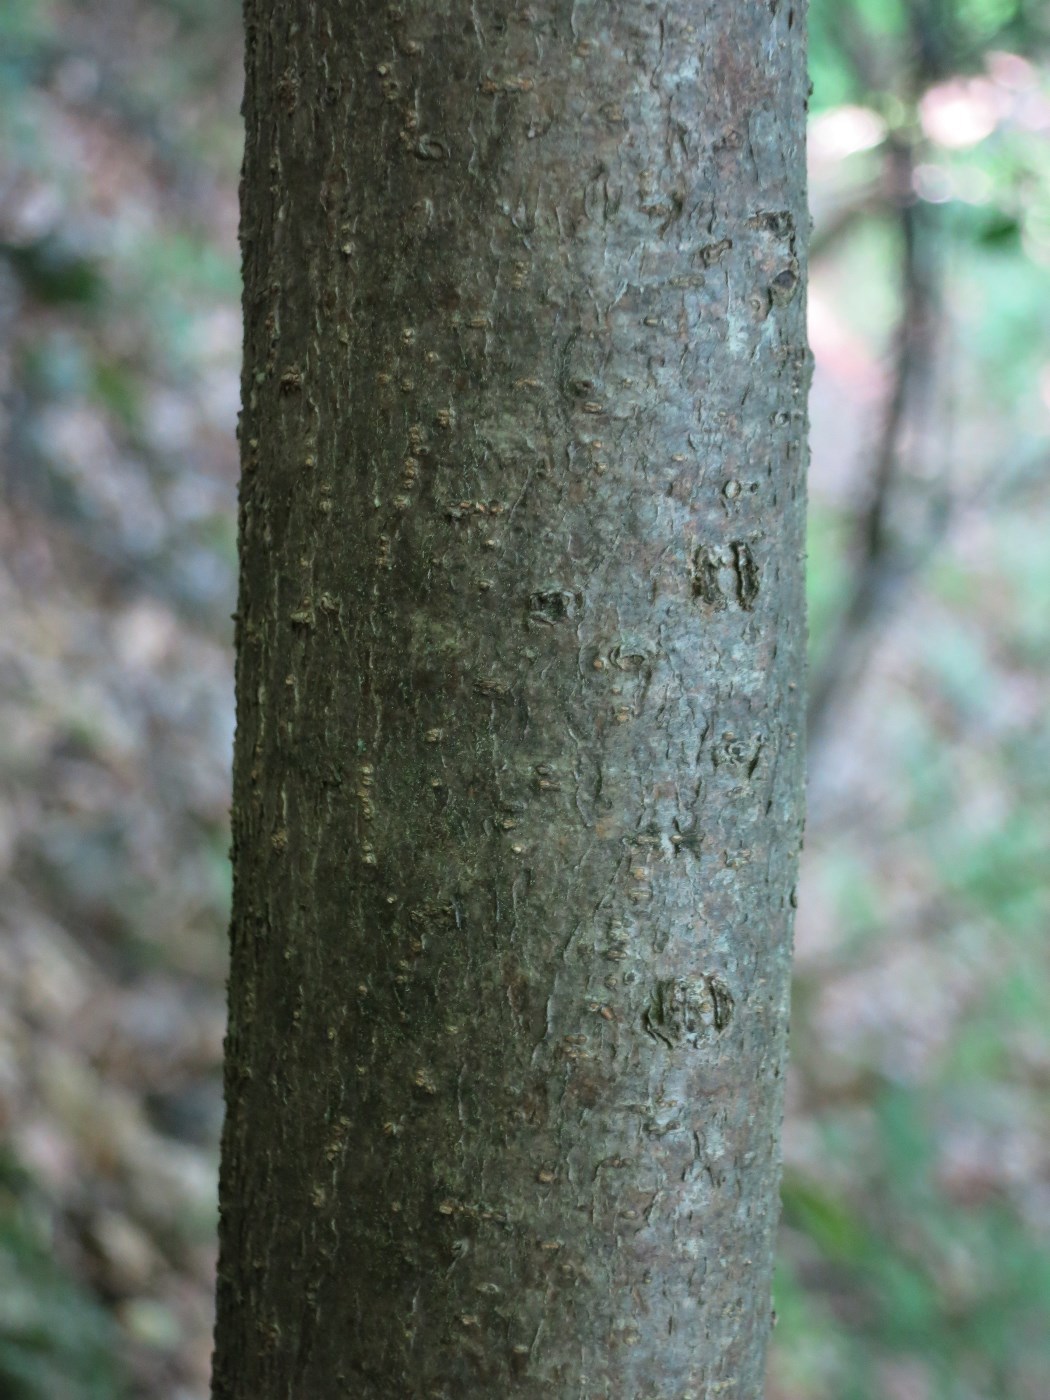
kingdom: Plantae
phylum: Tracheophyta
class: Magnoliopsida
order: Crossosomatales
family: Staphyleaceae
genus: Staphylea
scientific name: Staphylea trifolia
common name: American bladdernut
